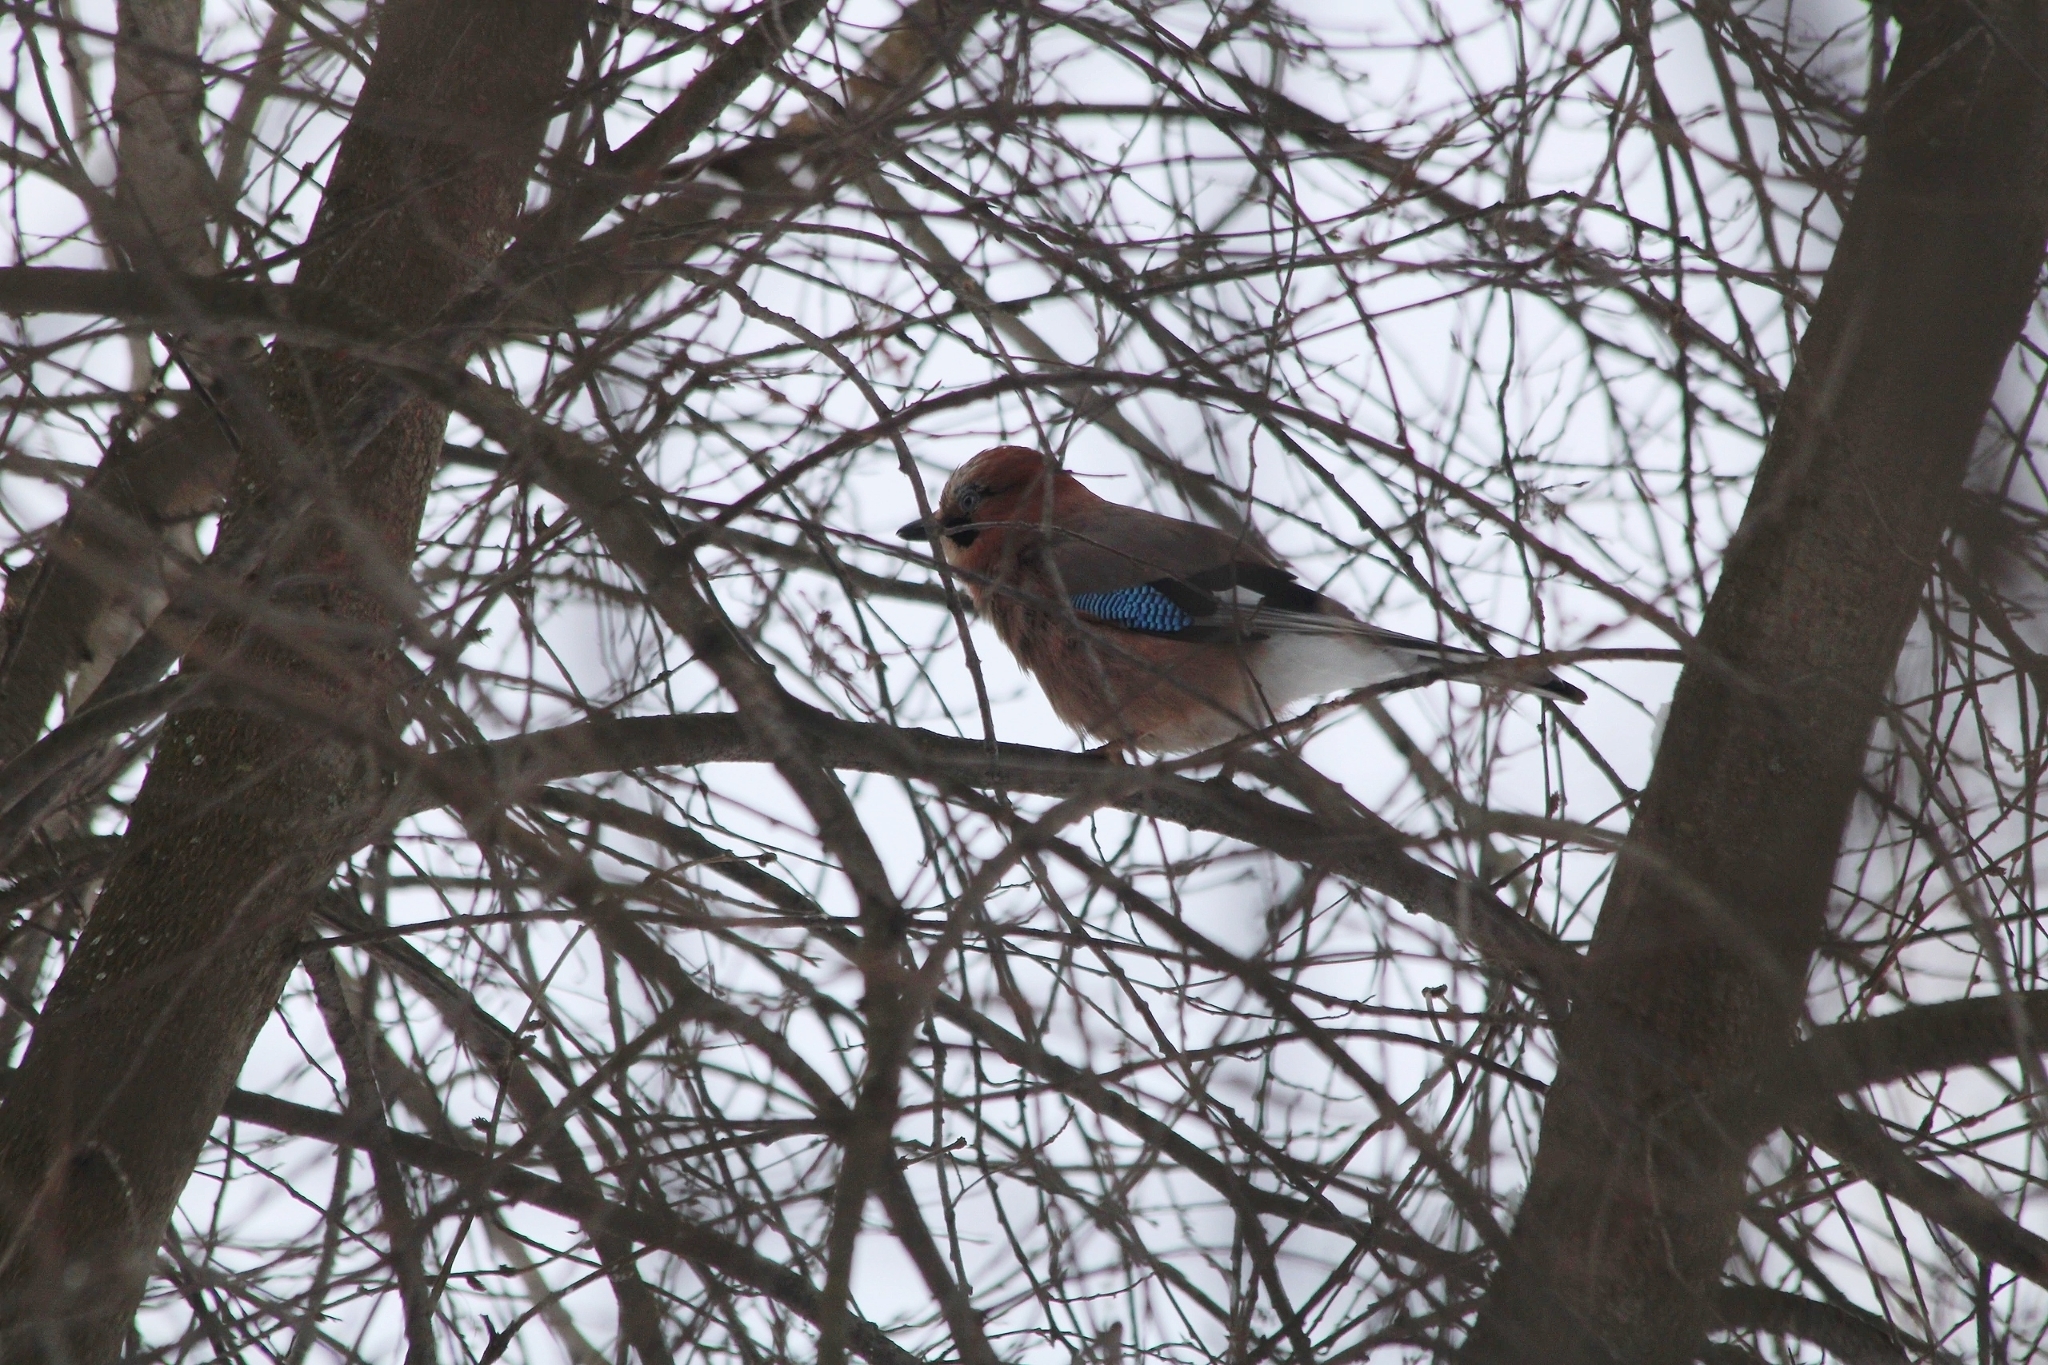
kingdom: Animalia
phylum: Chordata
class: Aves
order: Passeriformes
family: Corvidae
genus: Garrulus
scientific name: Garrulus glandarius
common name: Eurasian jay
